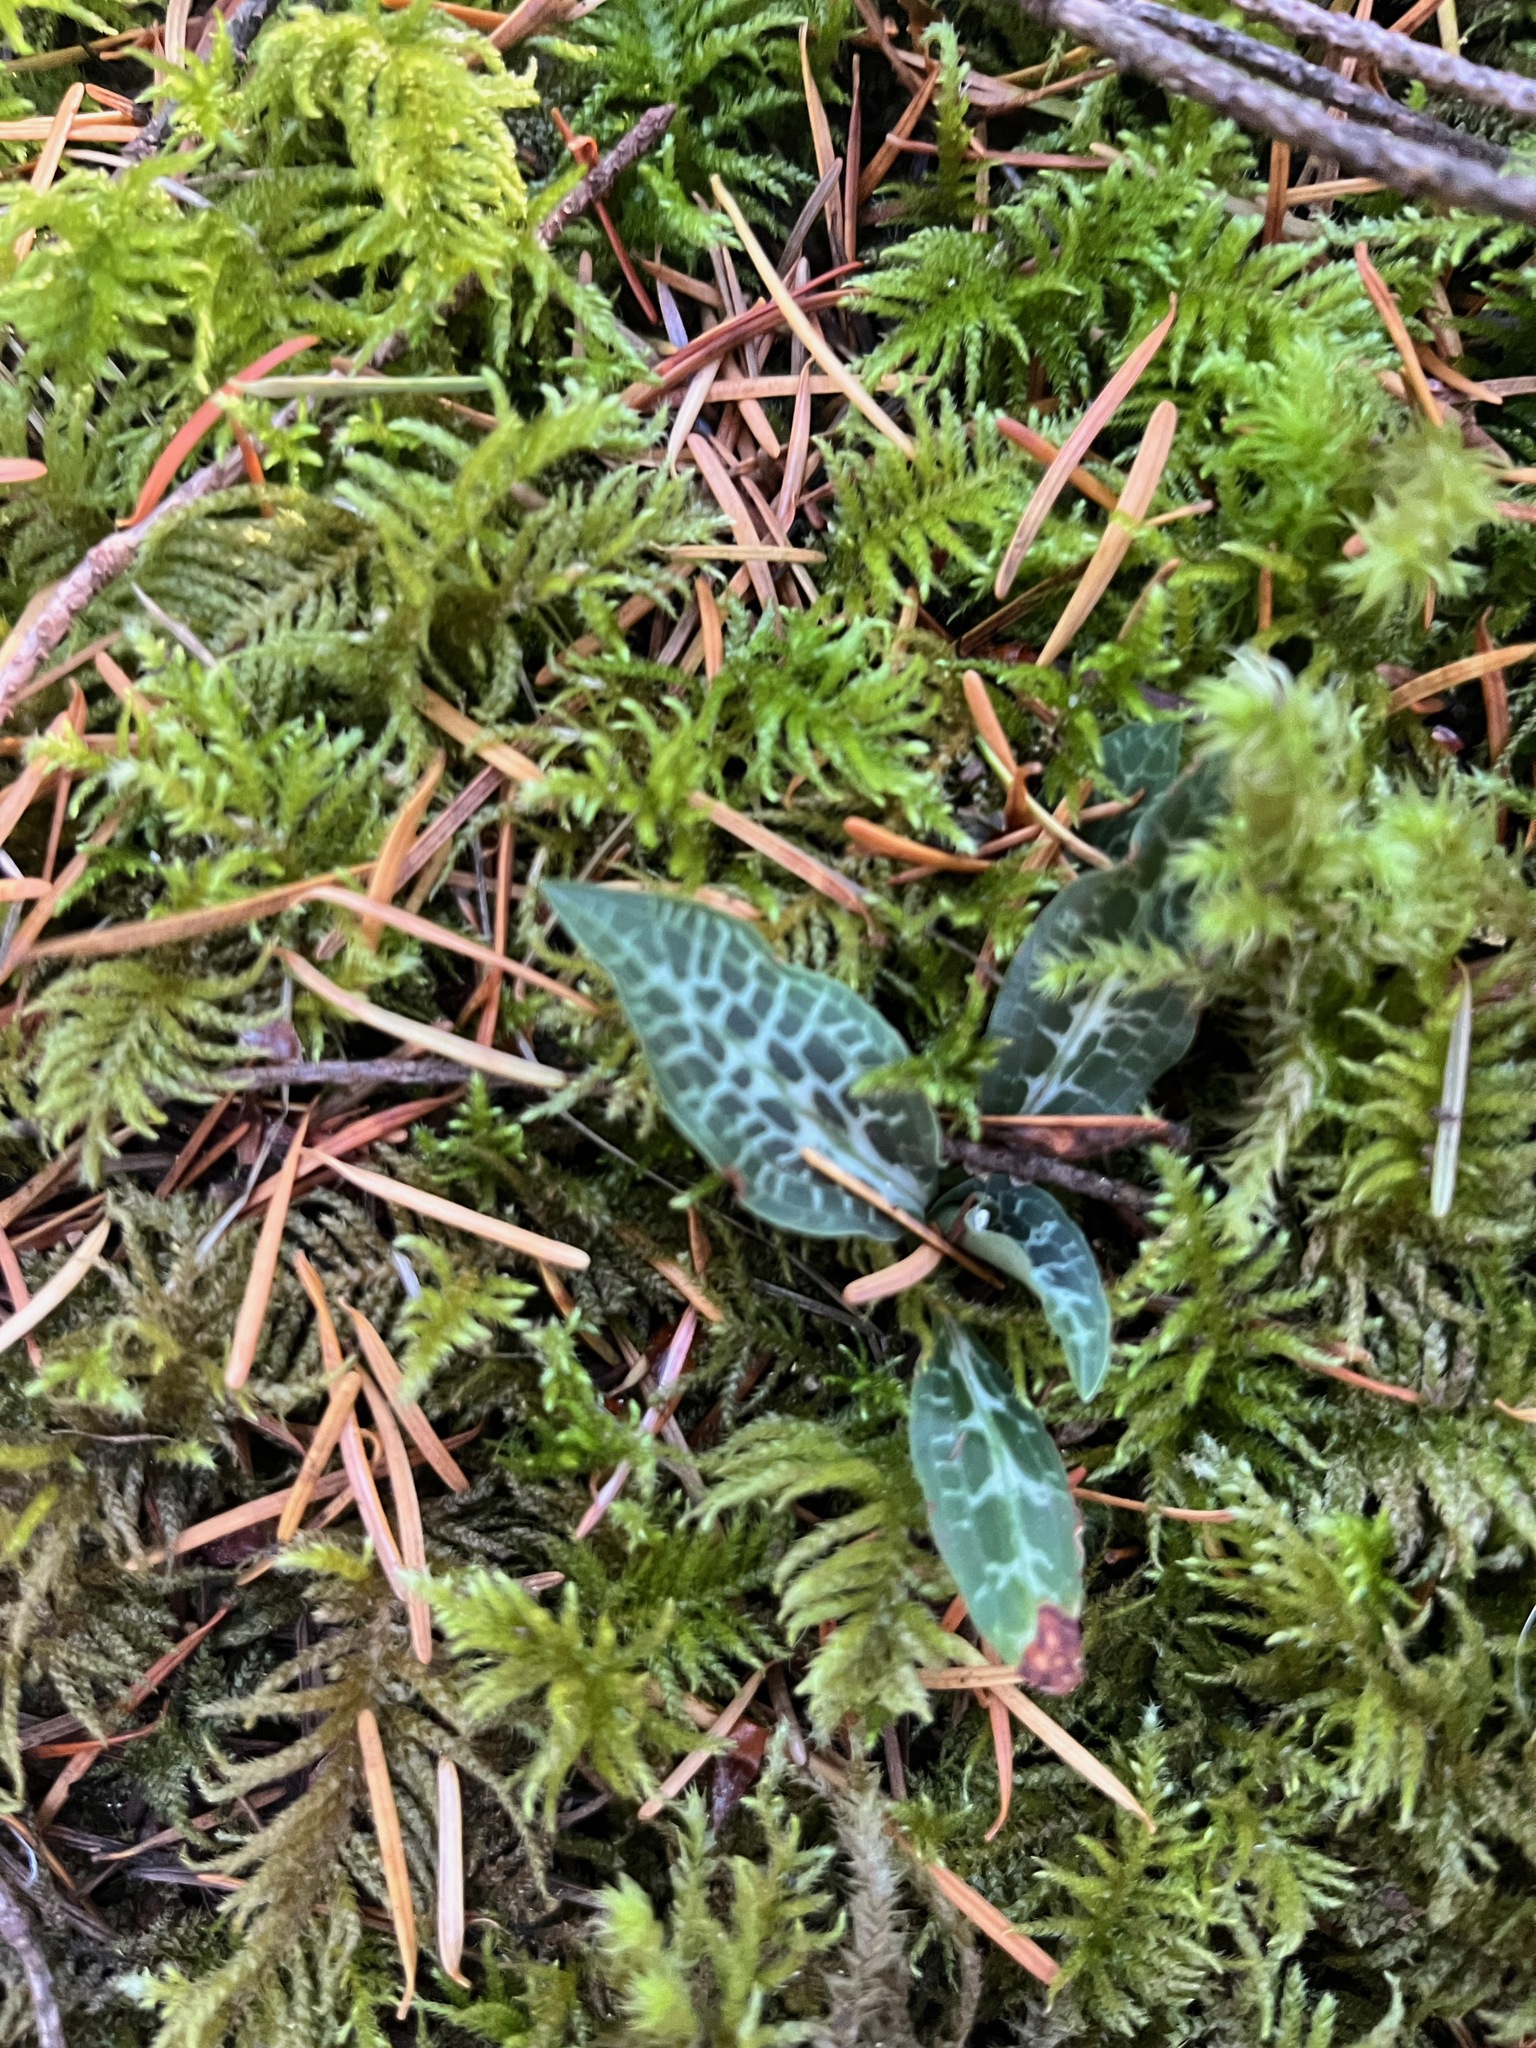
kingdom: Plantae
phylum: Tracheophyta
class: Liliopsida
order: Asparagales
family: Orchidaceae
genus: Goodyera
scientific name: Goodyera oblongifolia
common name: Giant rattlesnake-plantain
